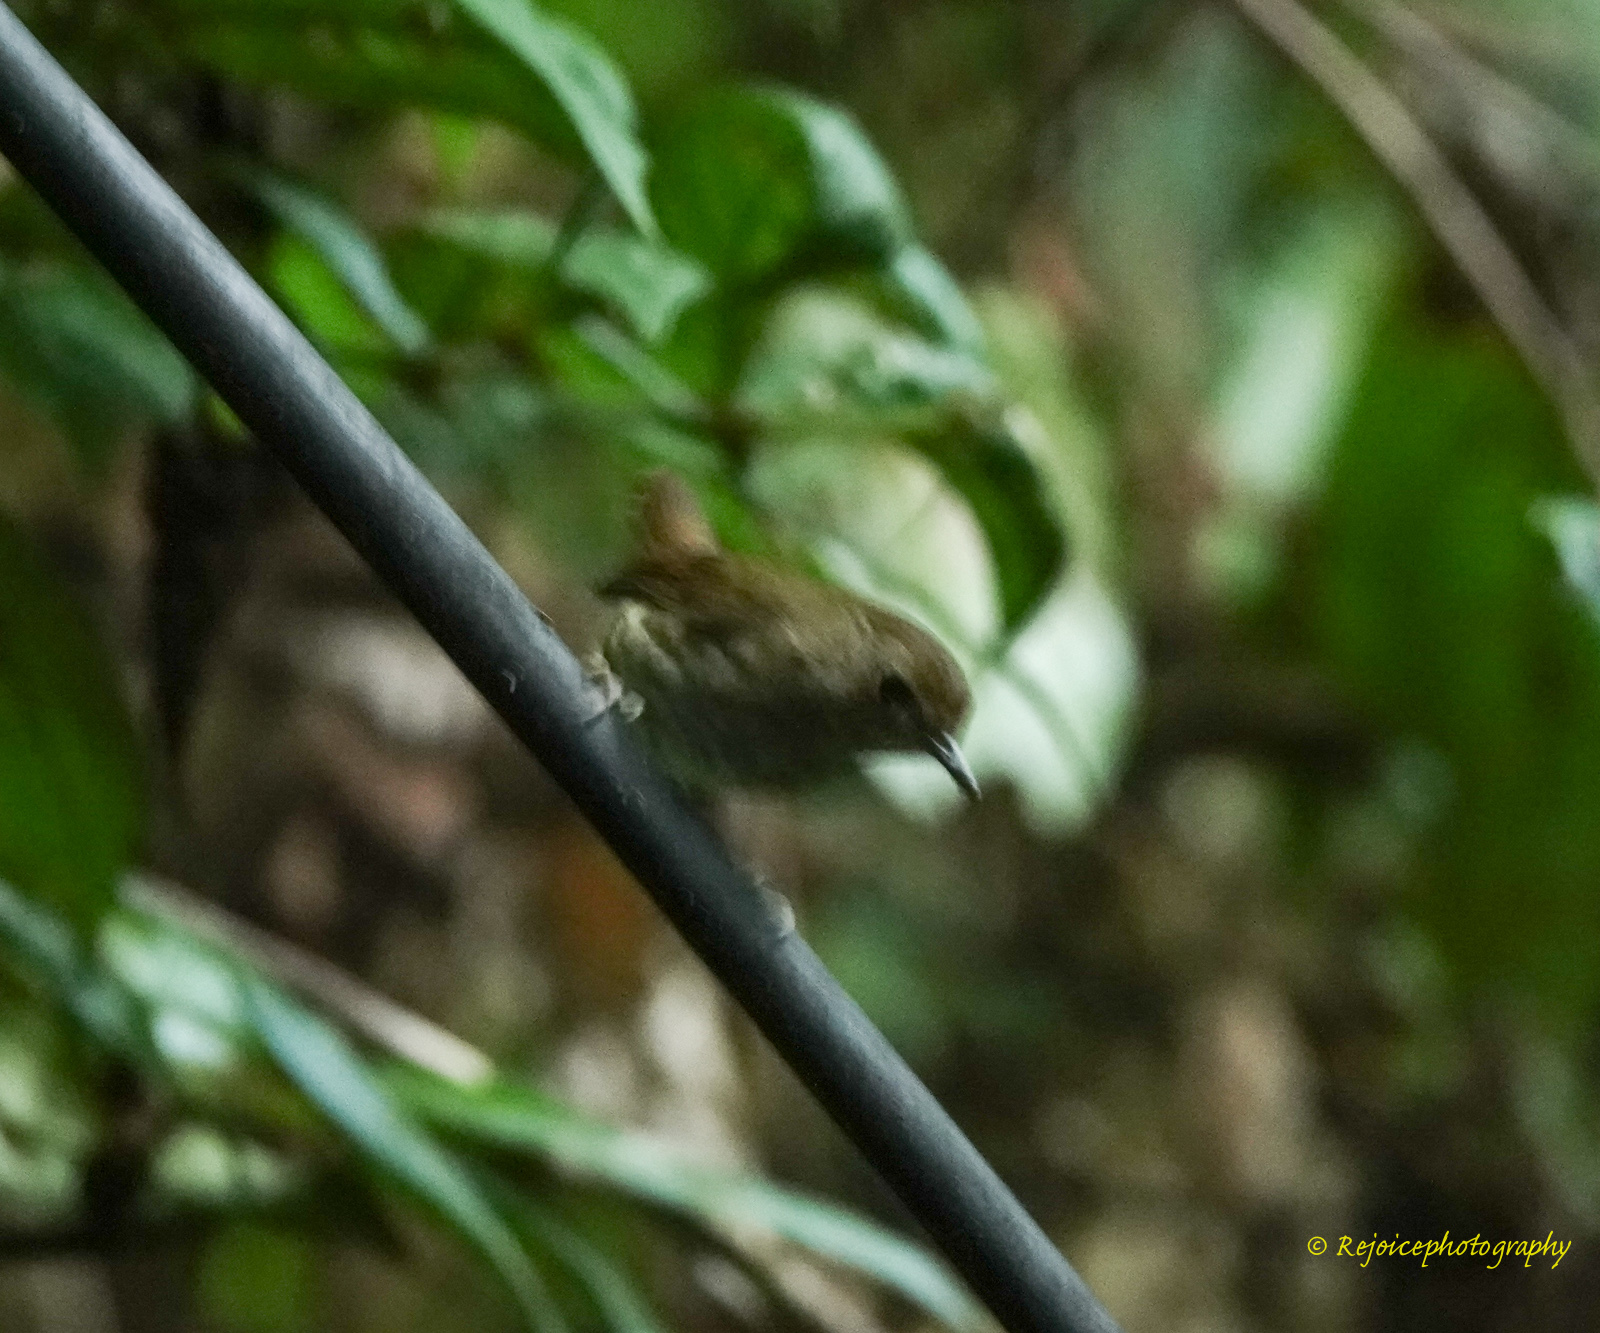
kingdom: Animalia
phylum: Chordata
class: Aves
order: Passeriformes
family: Muscicapidae
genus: Myiomela
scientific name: Myiomela leucura
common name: White-tailed robin
